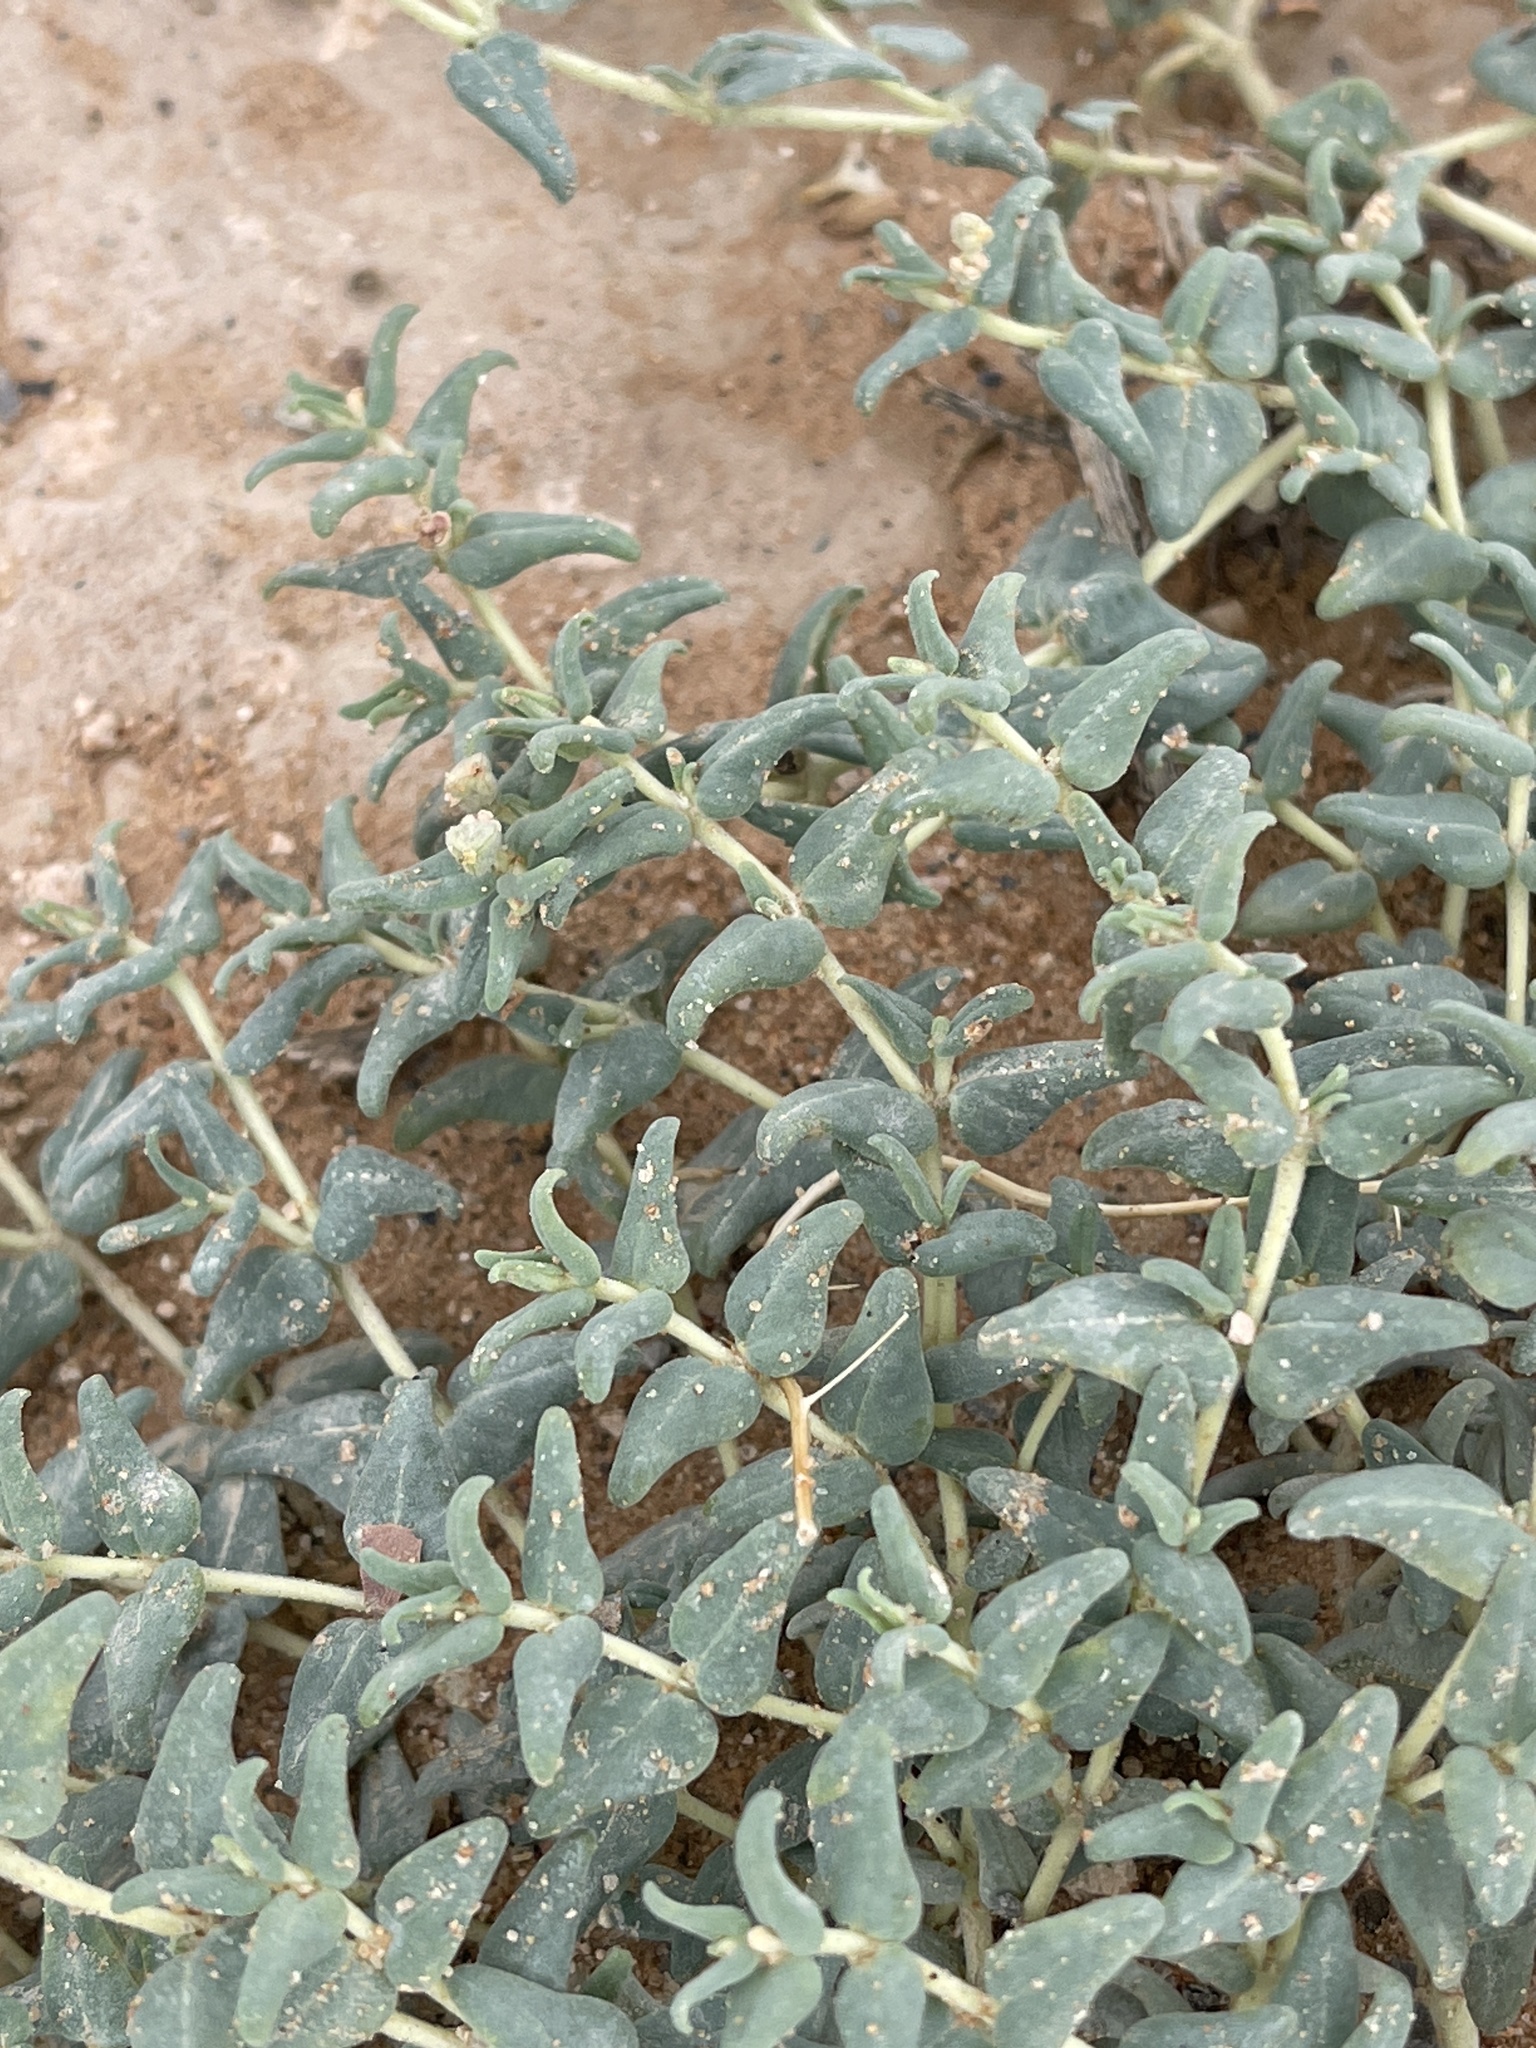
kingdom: Plantae
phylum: Tracheophyta
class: Magnoliopsida
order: Malpighiales
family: Euphorbiaceae
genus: Euphorbia
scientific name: Euphorbia lata
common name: Hoary euphorbia
